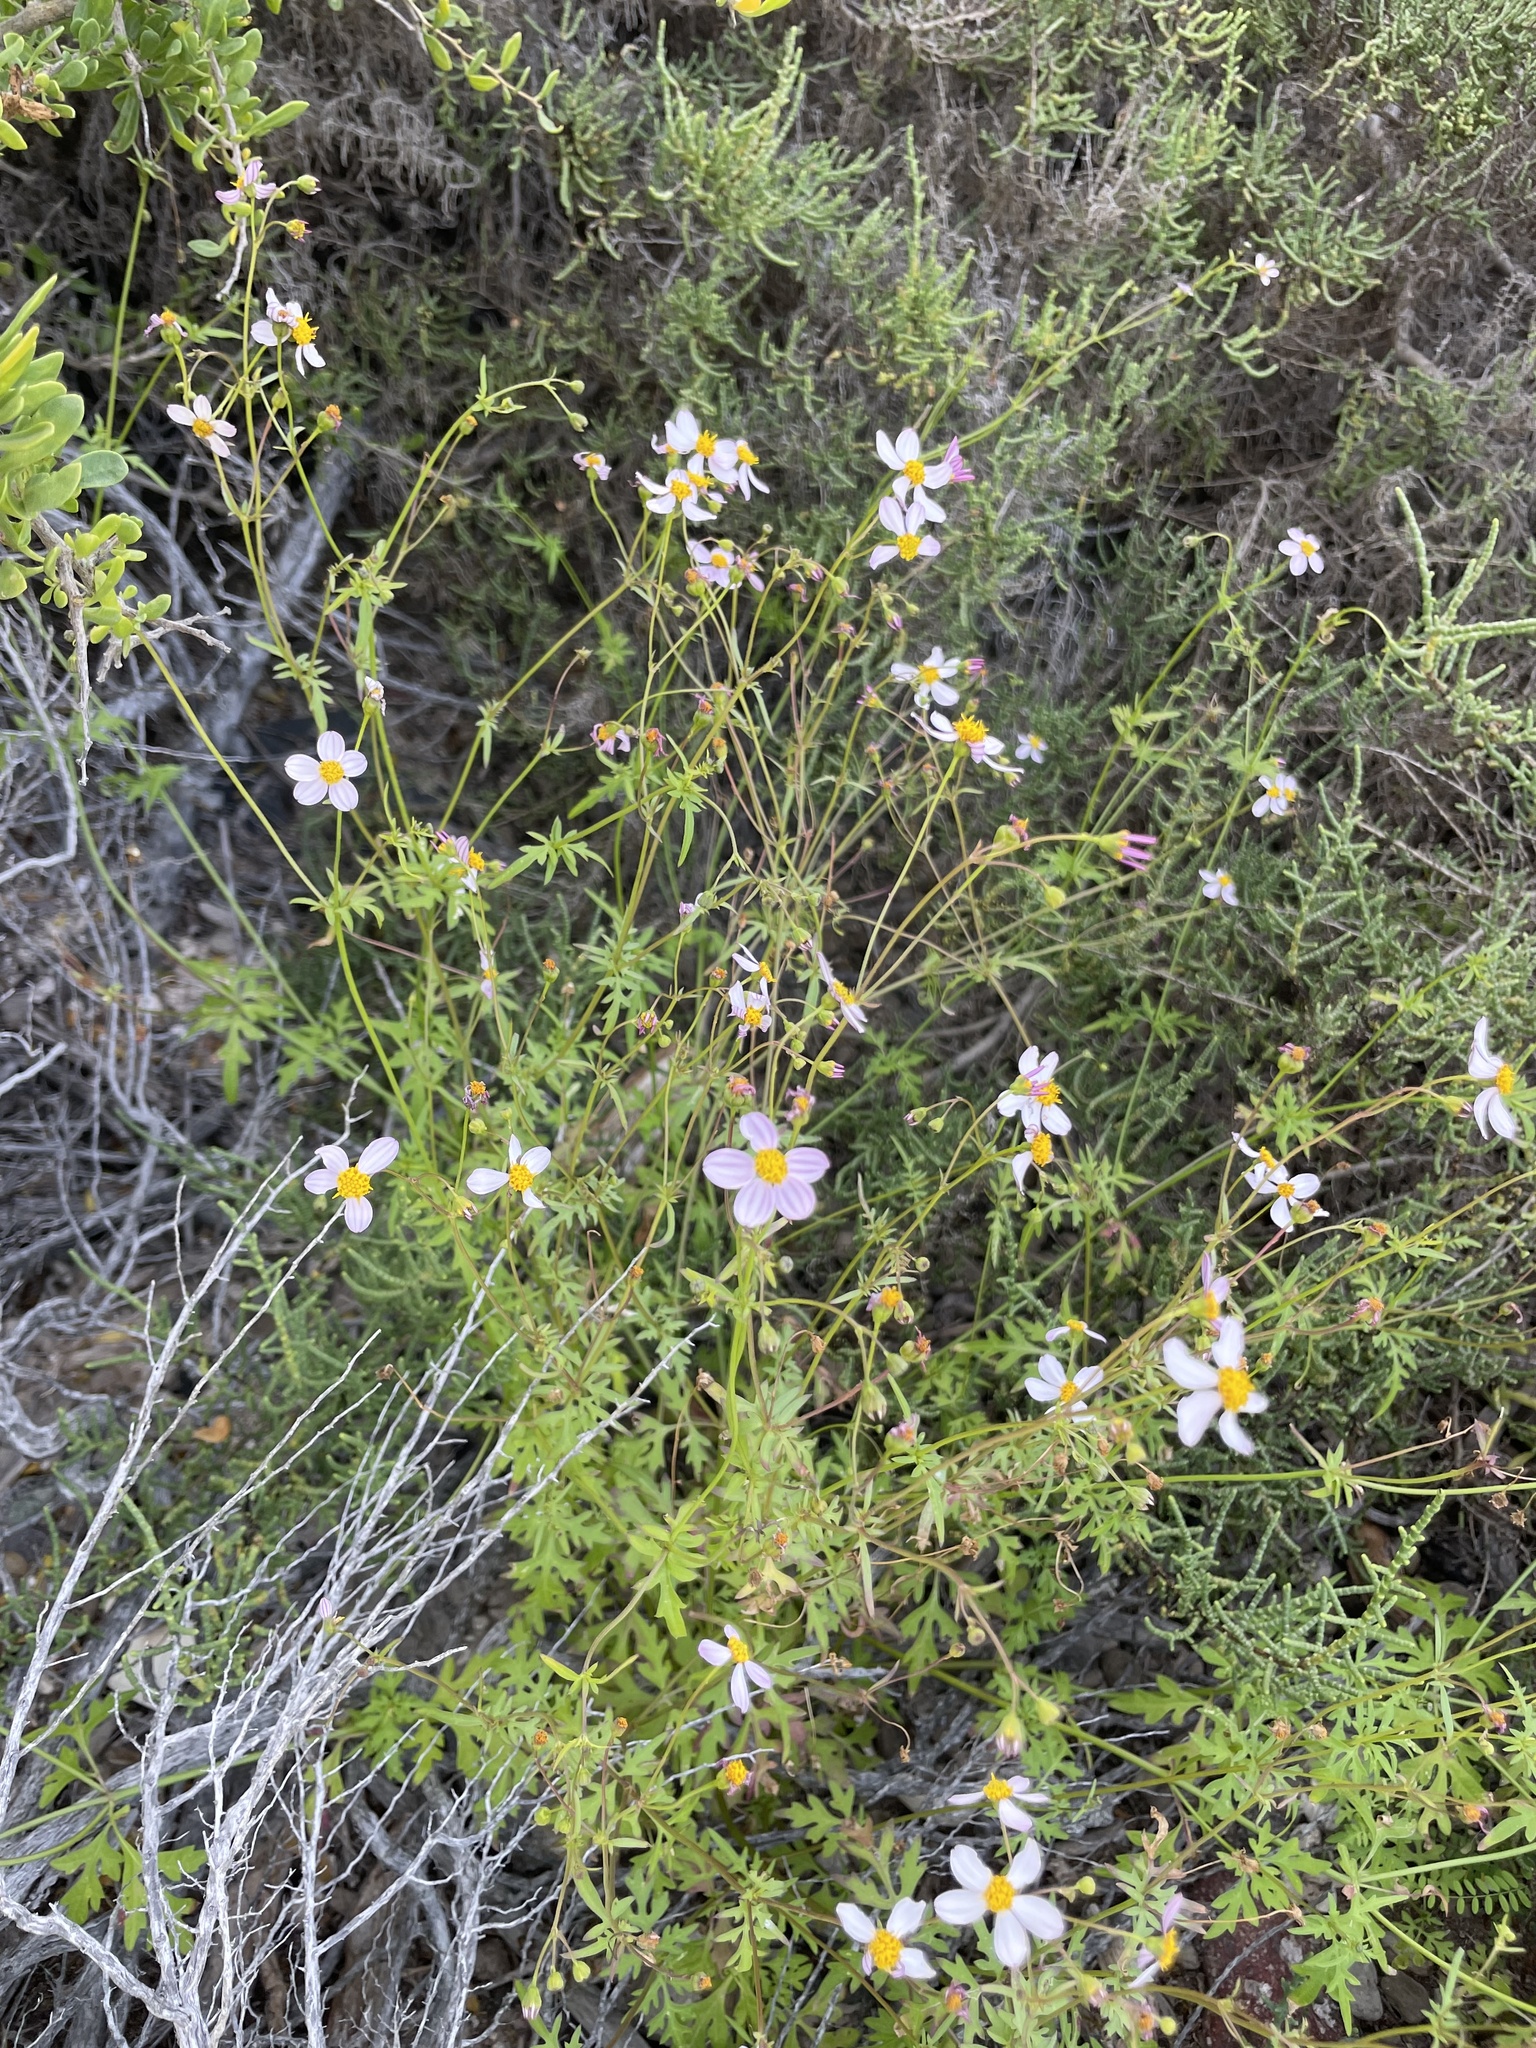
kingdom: Plantae
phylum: Tracheophyta
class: Magnoliopsida
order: Asterales
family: Asteraceae
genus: Coreocarpus
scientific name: Coreocarpus parthenioides
